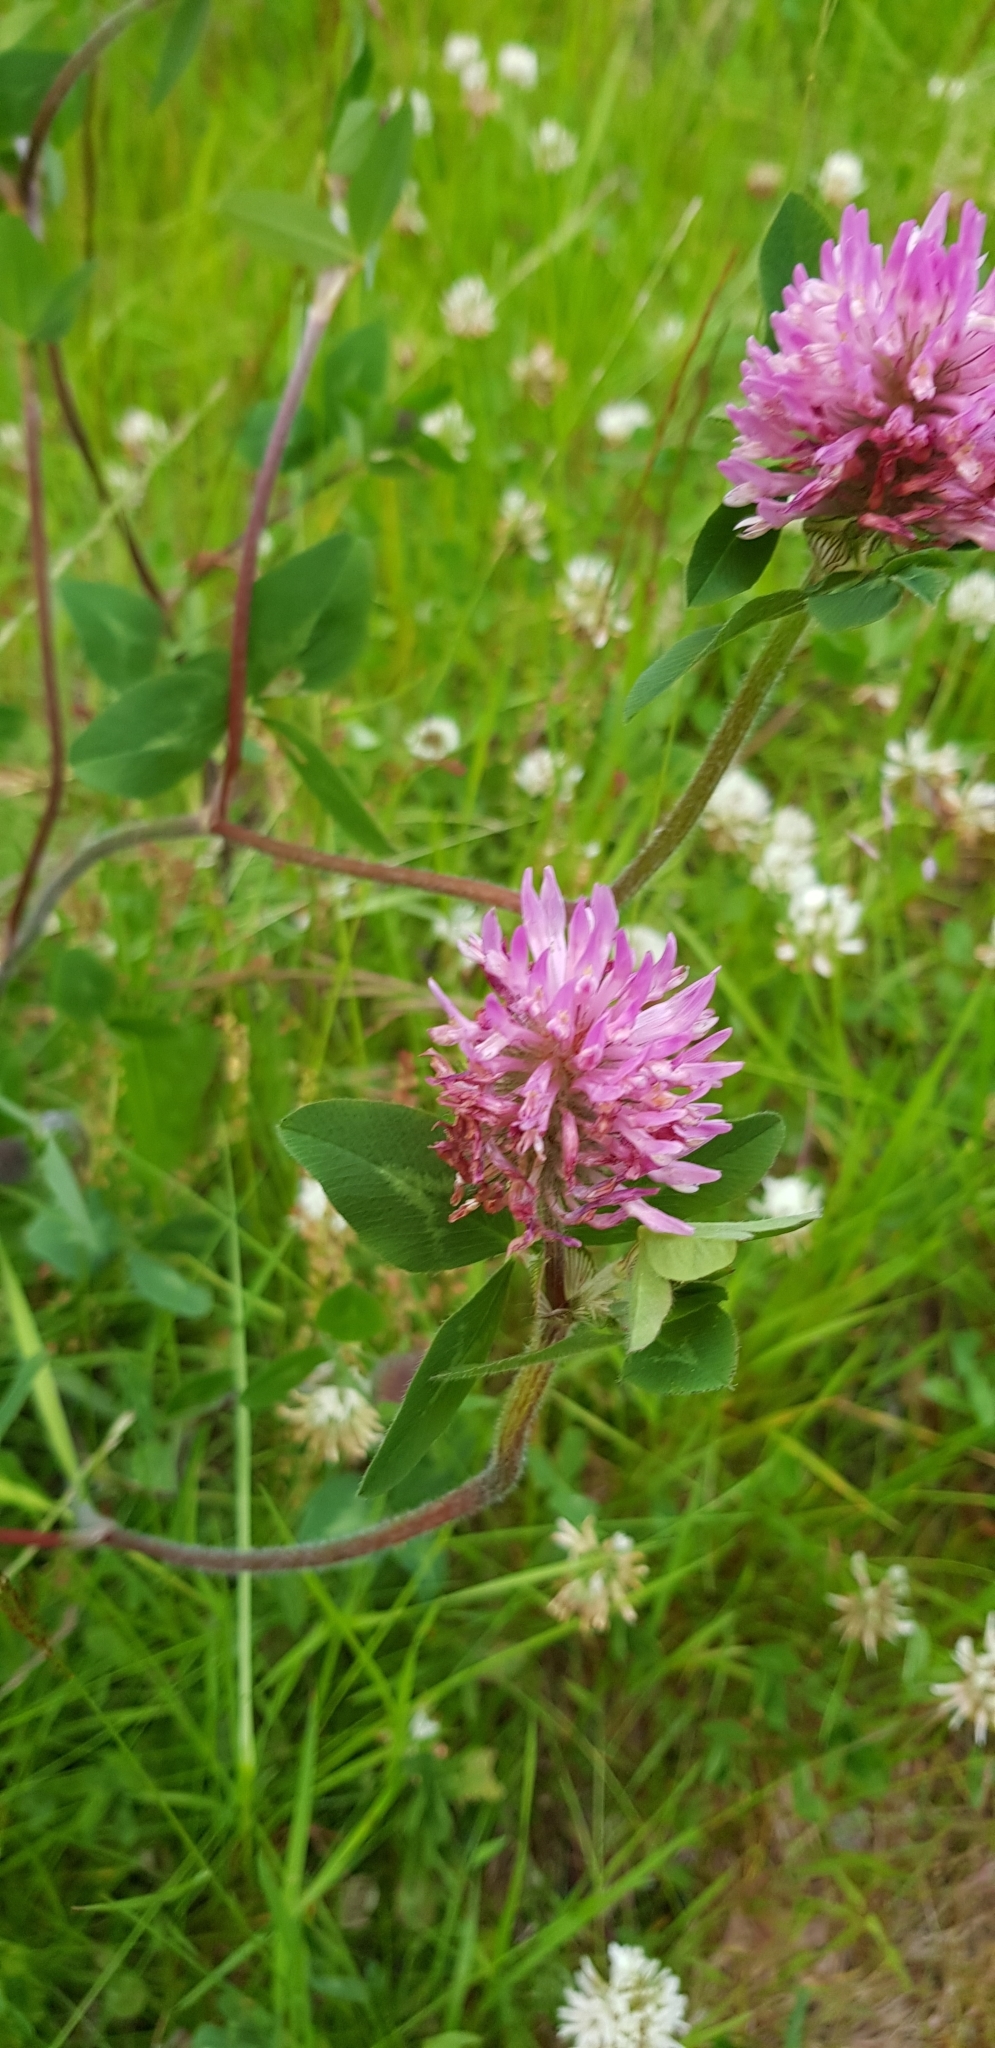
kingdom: Plantae
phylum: Tracheophyta
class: Magnoliopsida
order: Fabales
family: Fabaceae
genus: Trifolium
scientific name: Trifolium pratense
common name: Red clover
